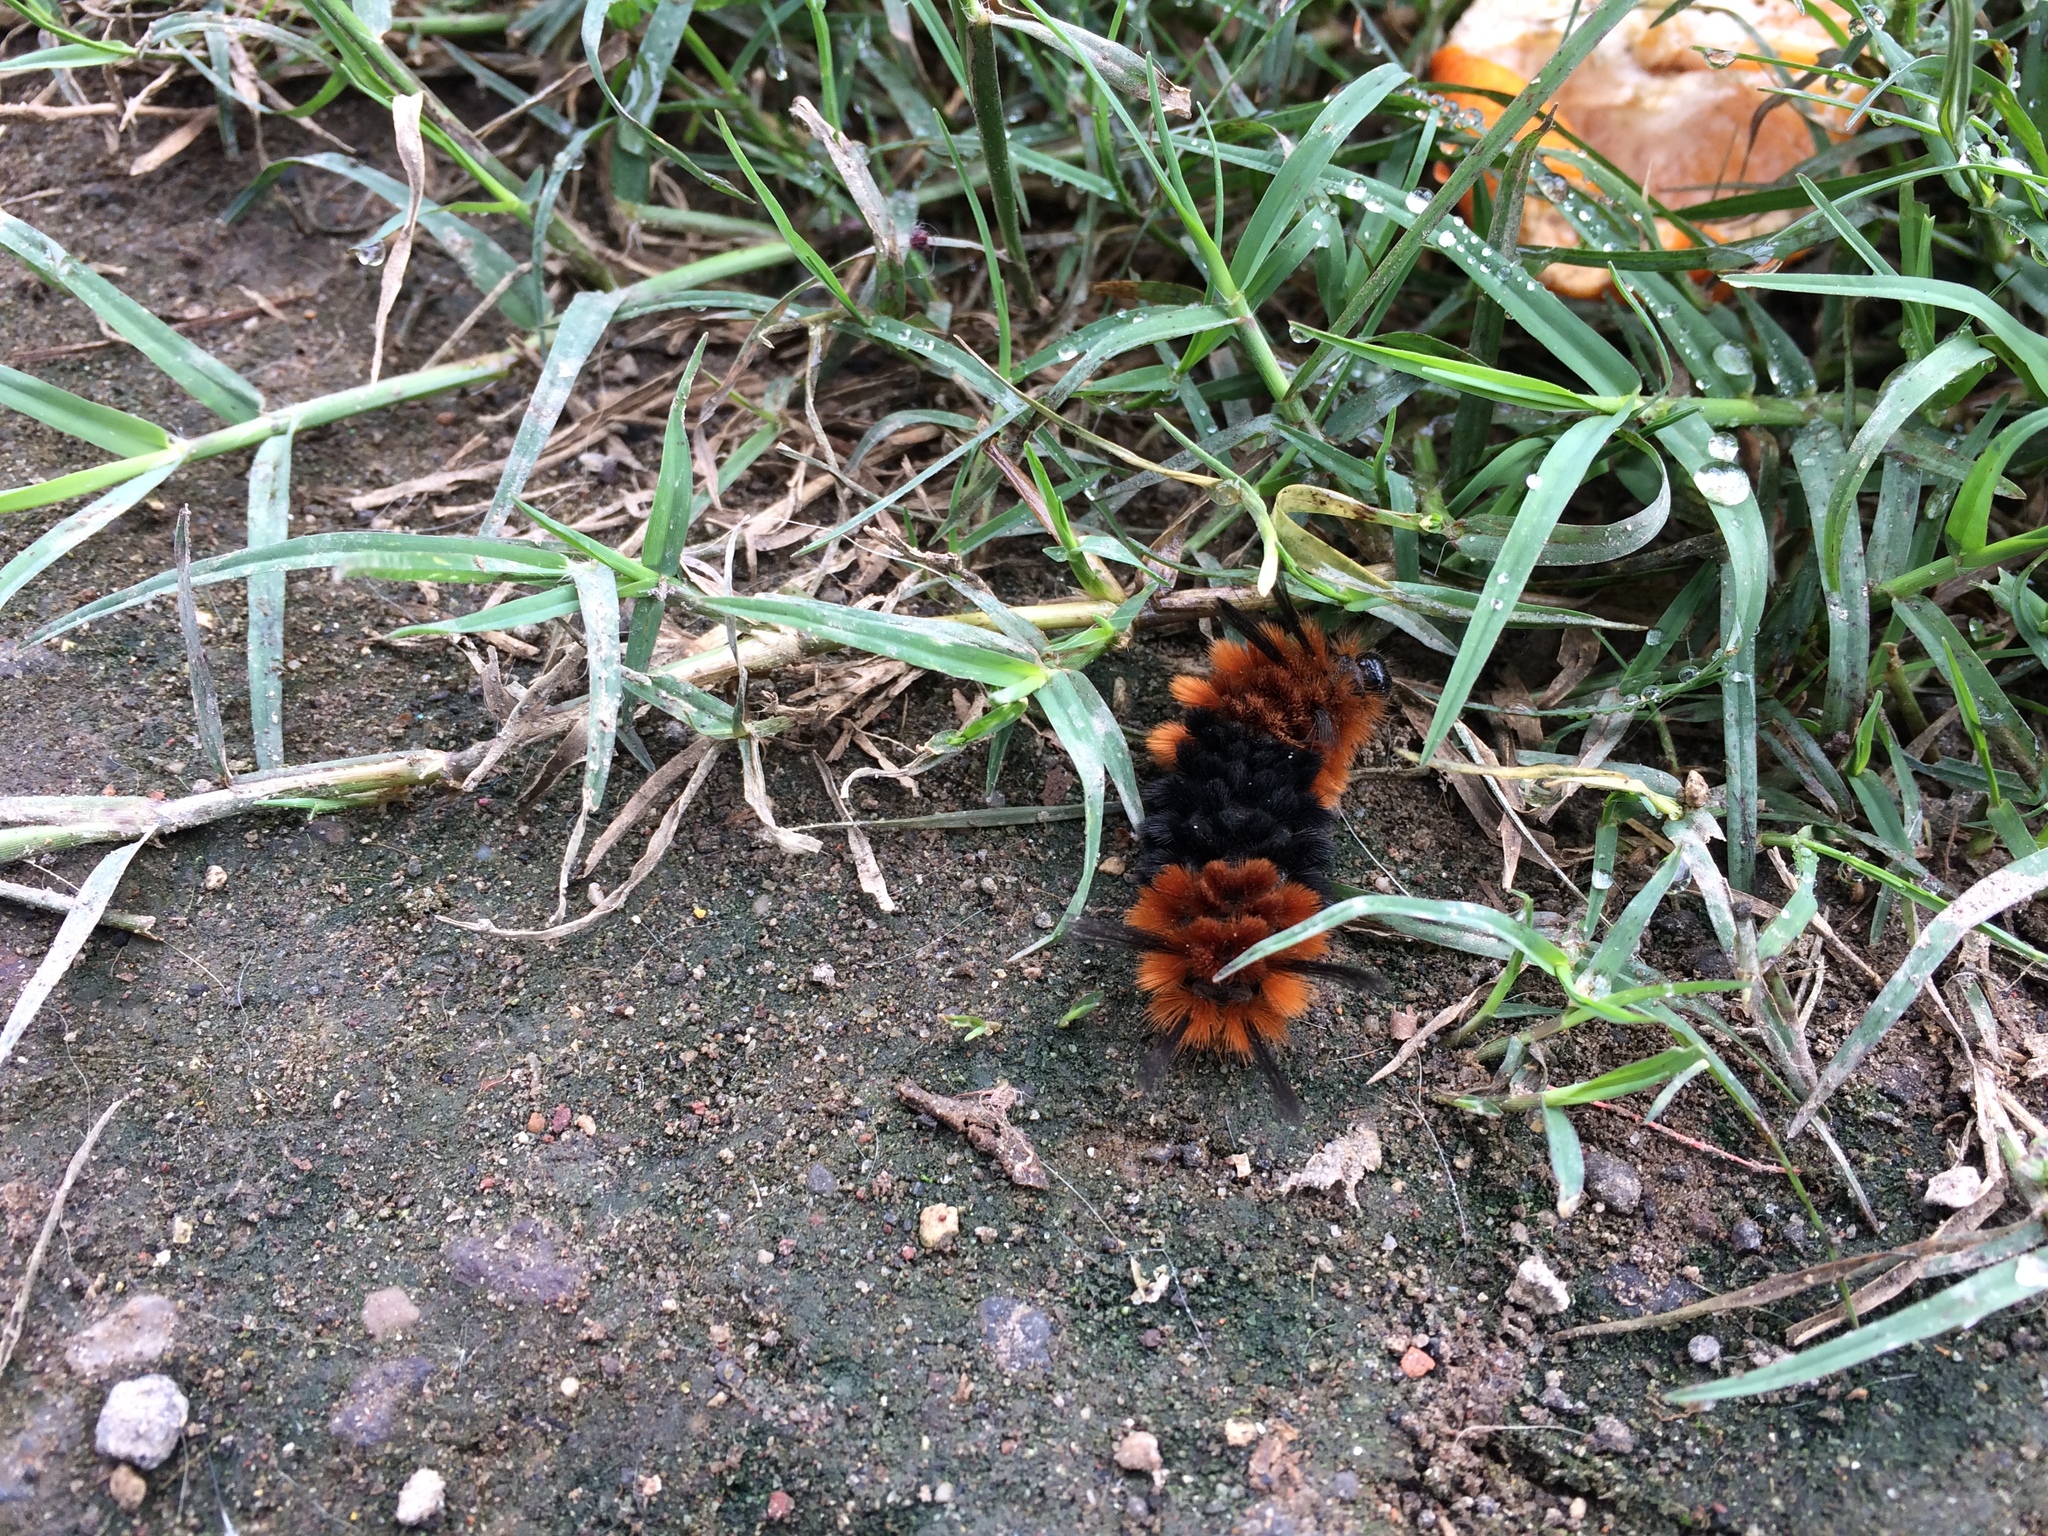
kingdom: Animalia
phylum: Arthropoda
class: Insecta
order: Lepidoptera
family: Erebidae
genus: Turuptiana
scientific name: Turuptiana
